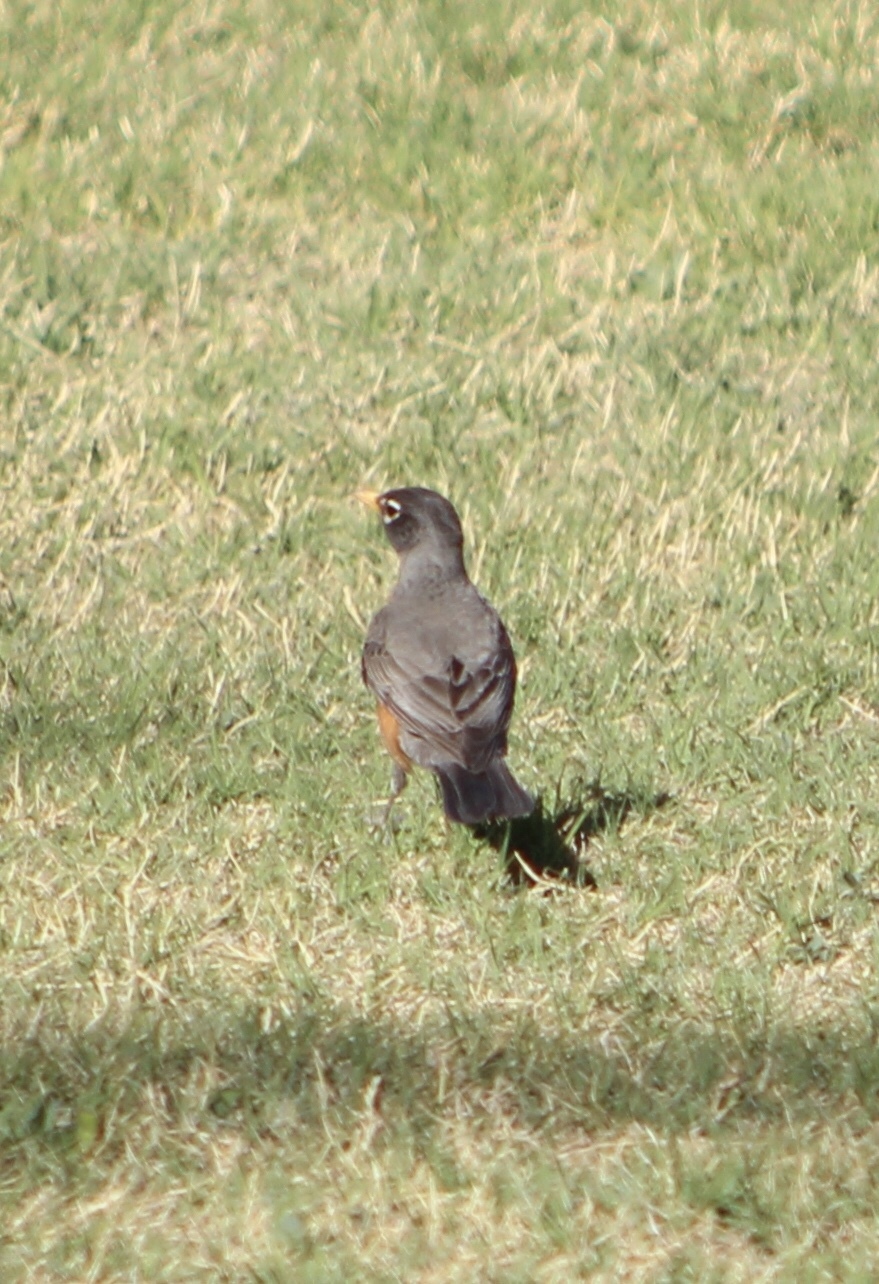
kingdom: Animalia
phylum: Chordata
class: Aves
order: Passeriformes
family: Turdidae
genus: Turdus
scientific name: Turdus migratorius
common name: American robin
